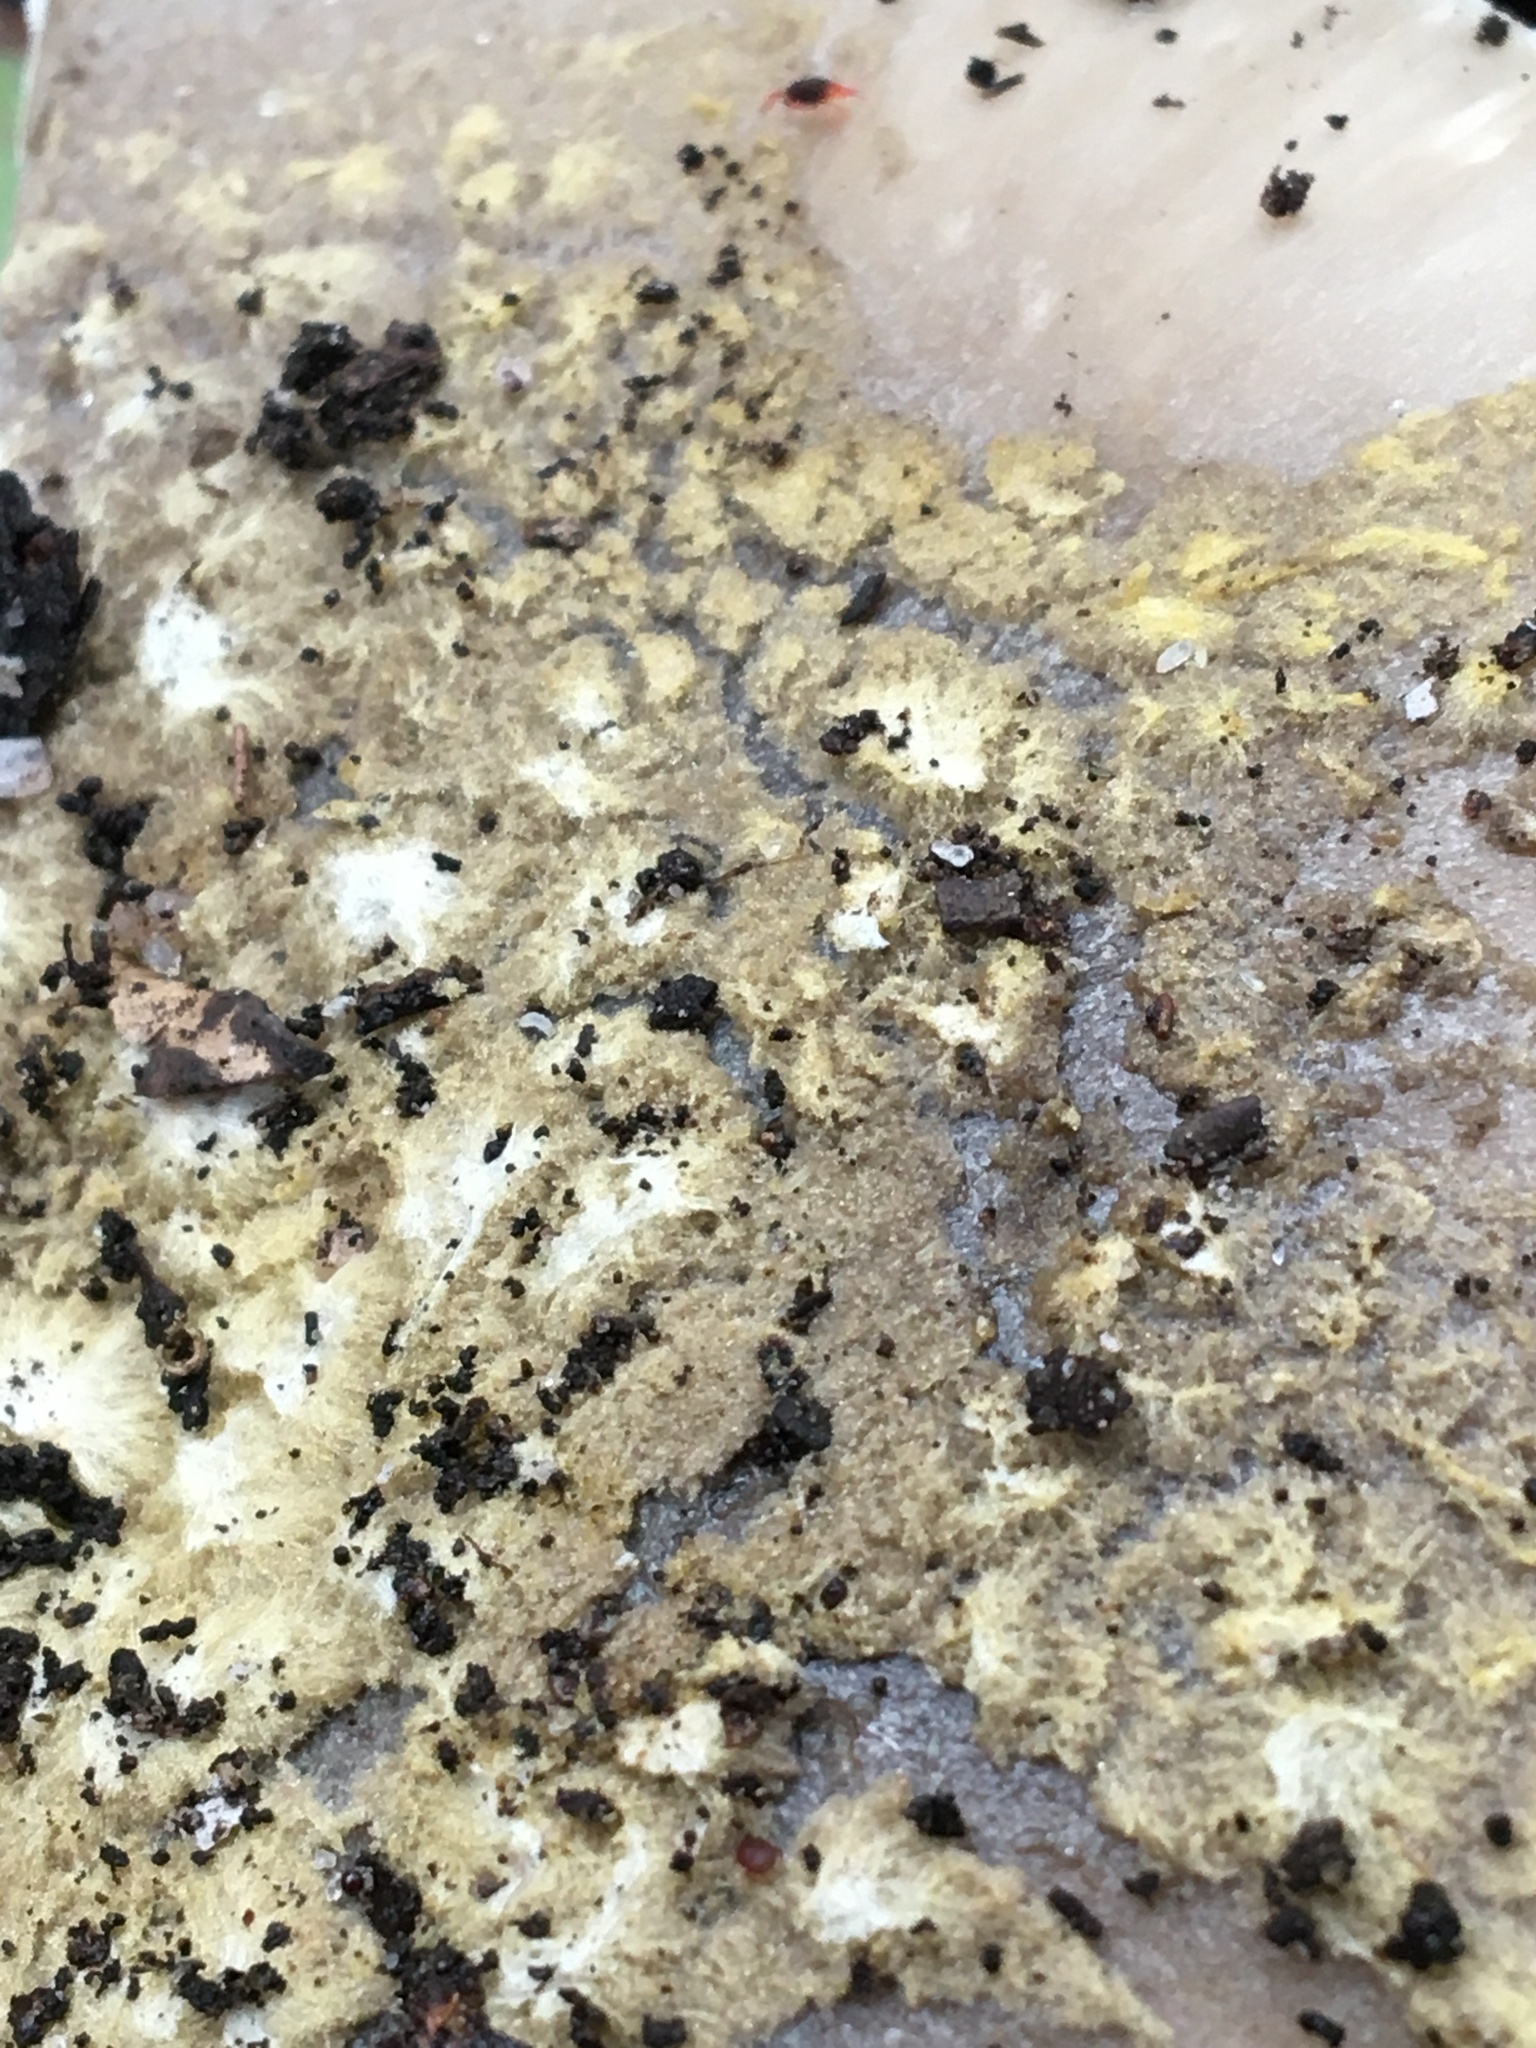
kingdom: Fungi
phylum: Basidiomycota
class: Agaricomycetes
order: Agaricales
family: Amanitaceae
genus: Amanita
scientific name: Amanita luteolovelata
